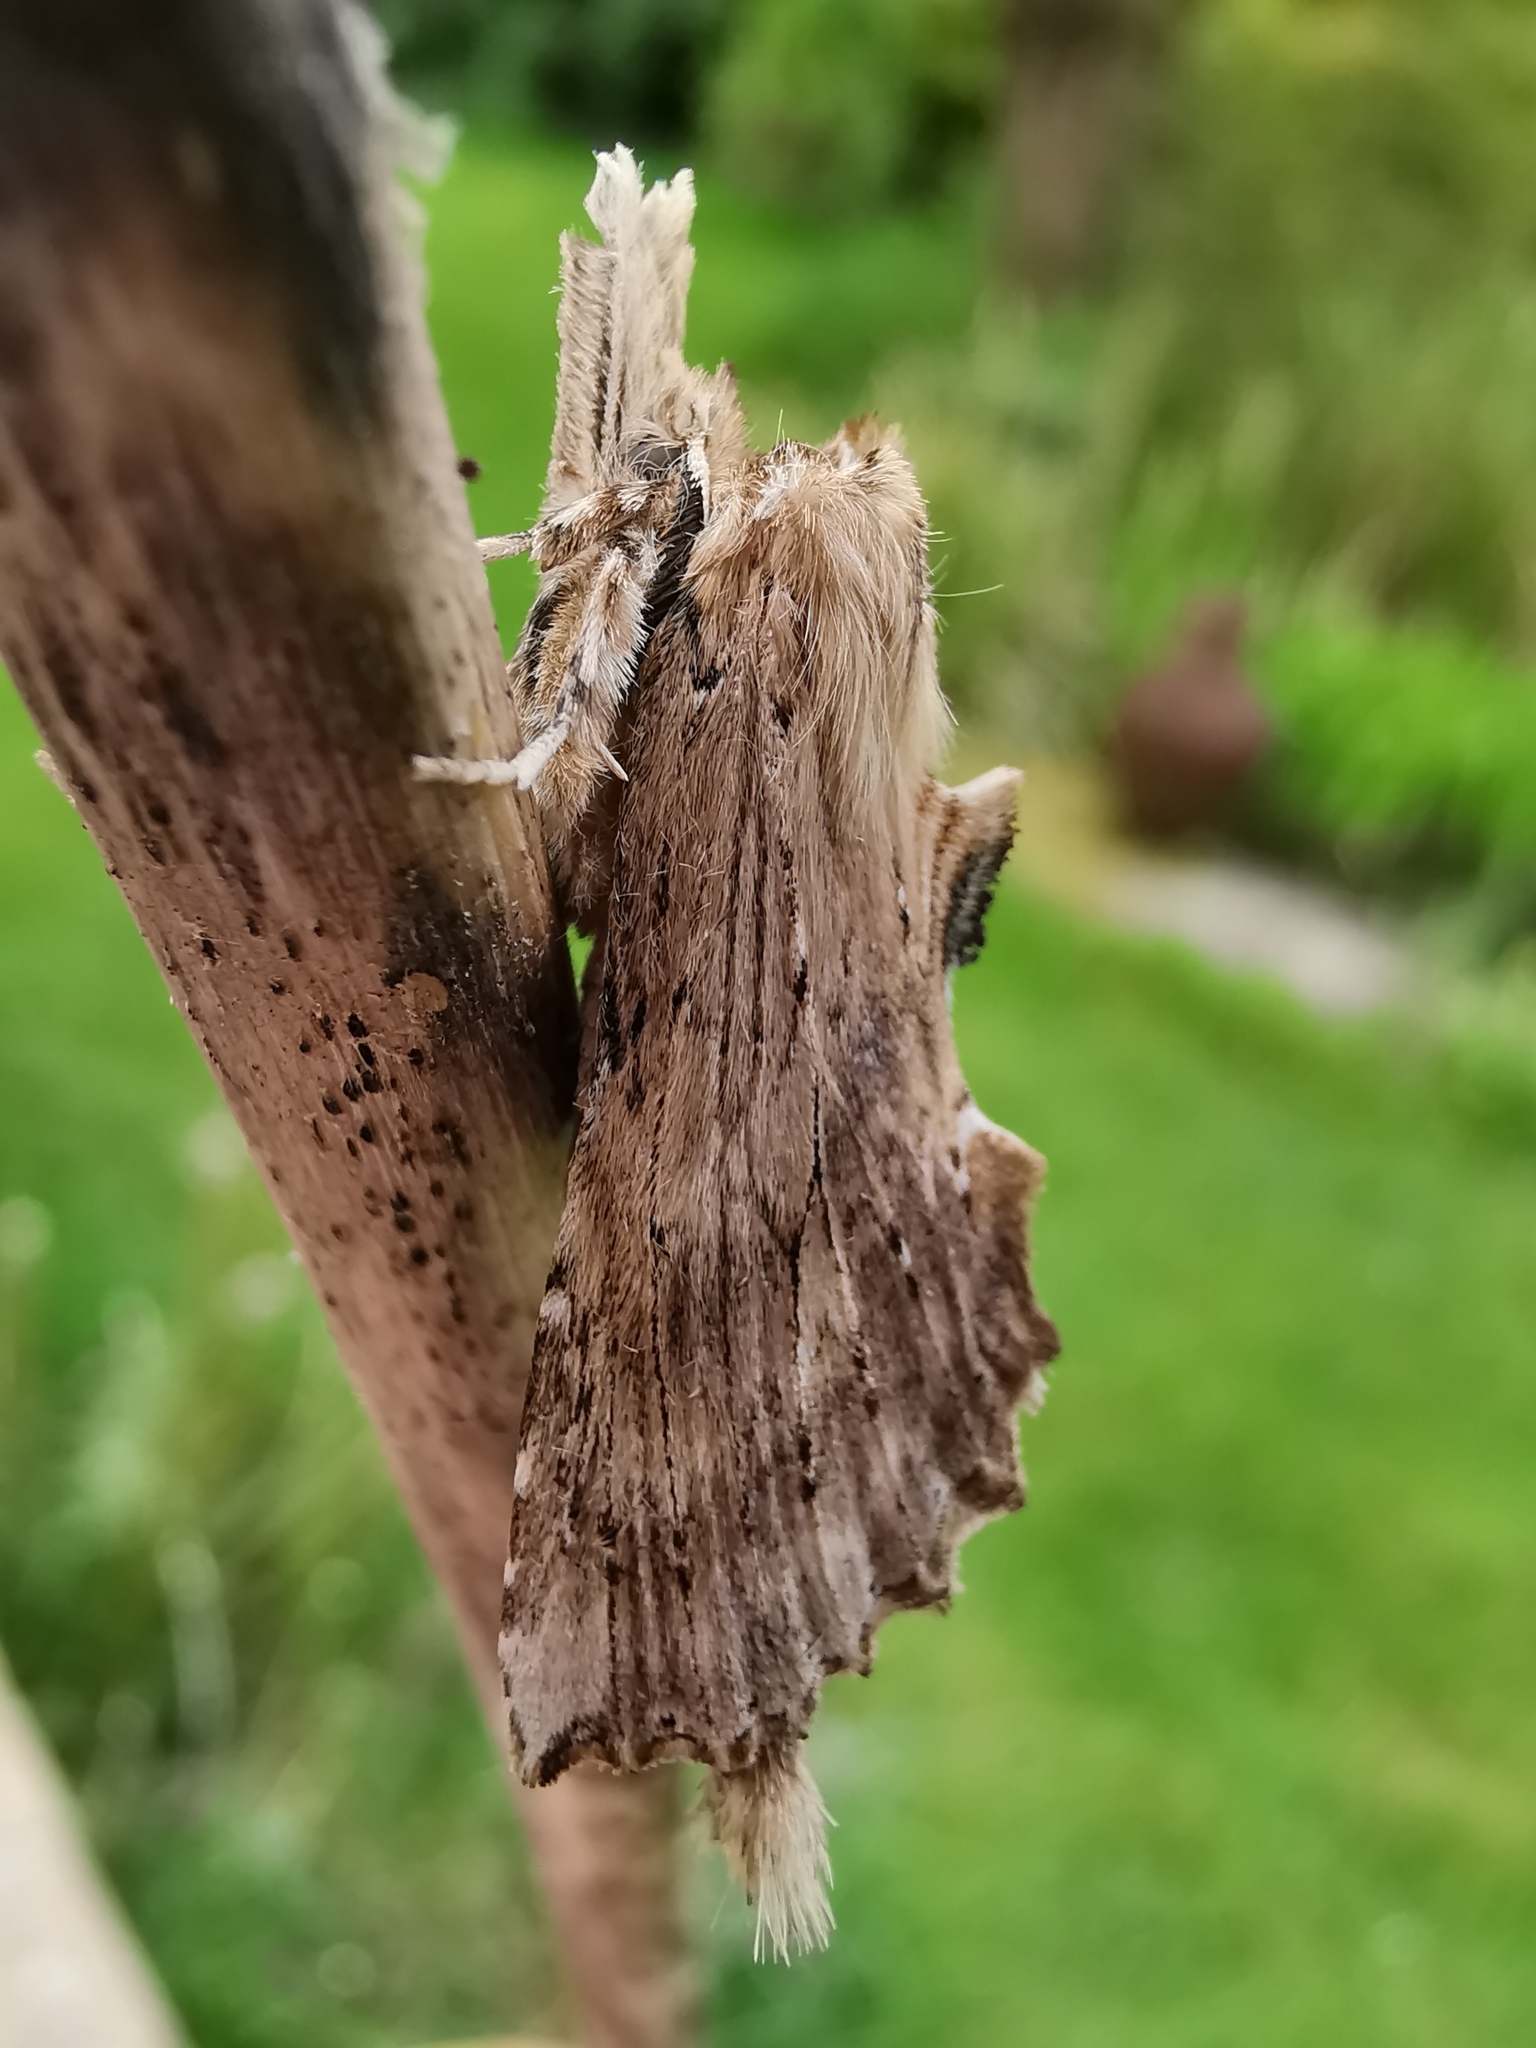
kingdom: Animalia
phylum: Arthropoda
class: Insecta
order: Lepidoptera
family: Notodontidae
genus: Pterostoma
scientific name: Pterostoma palpina
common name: Pale prominent
